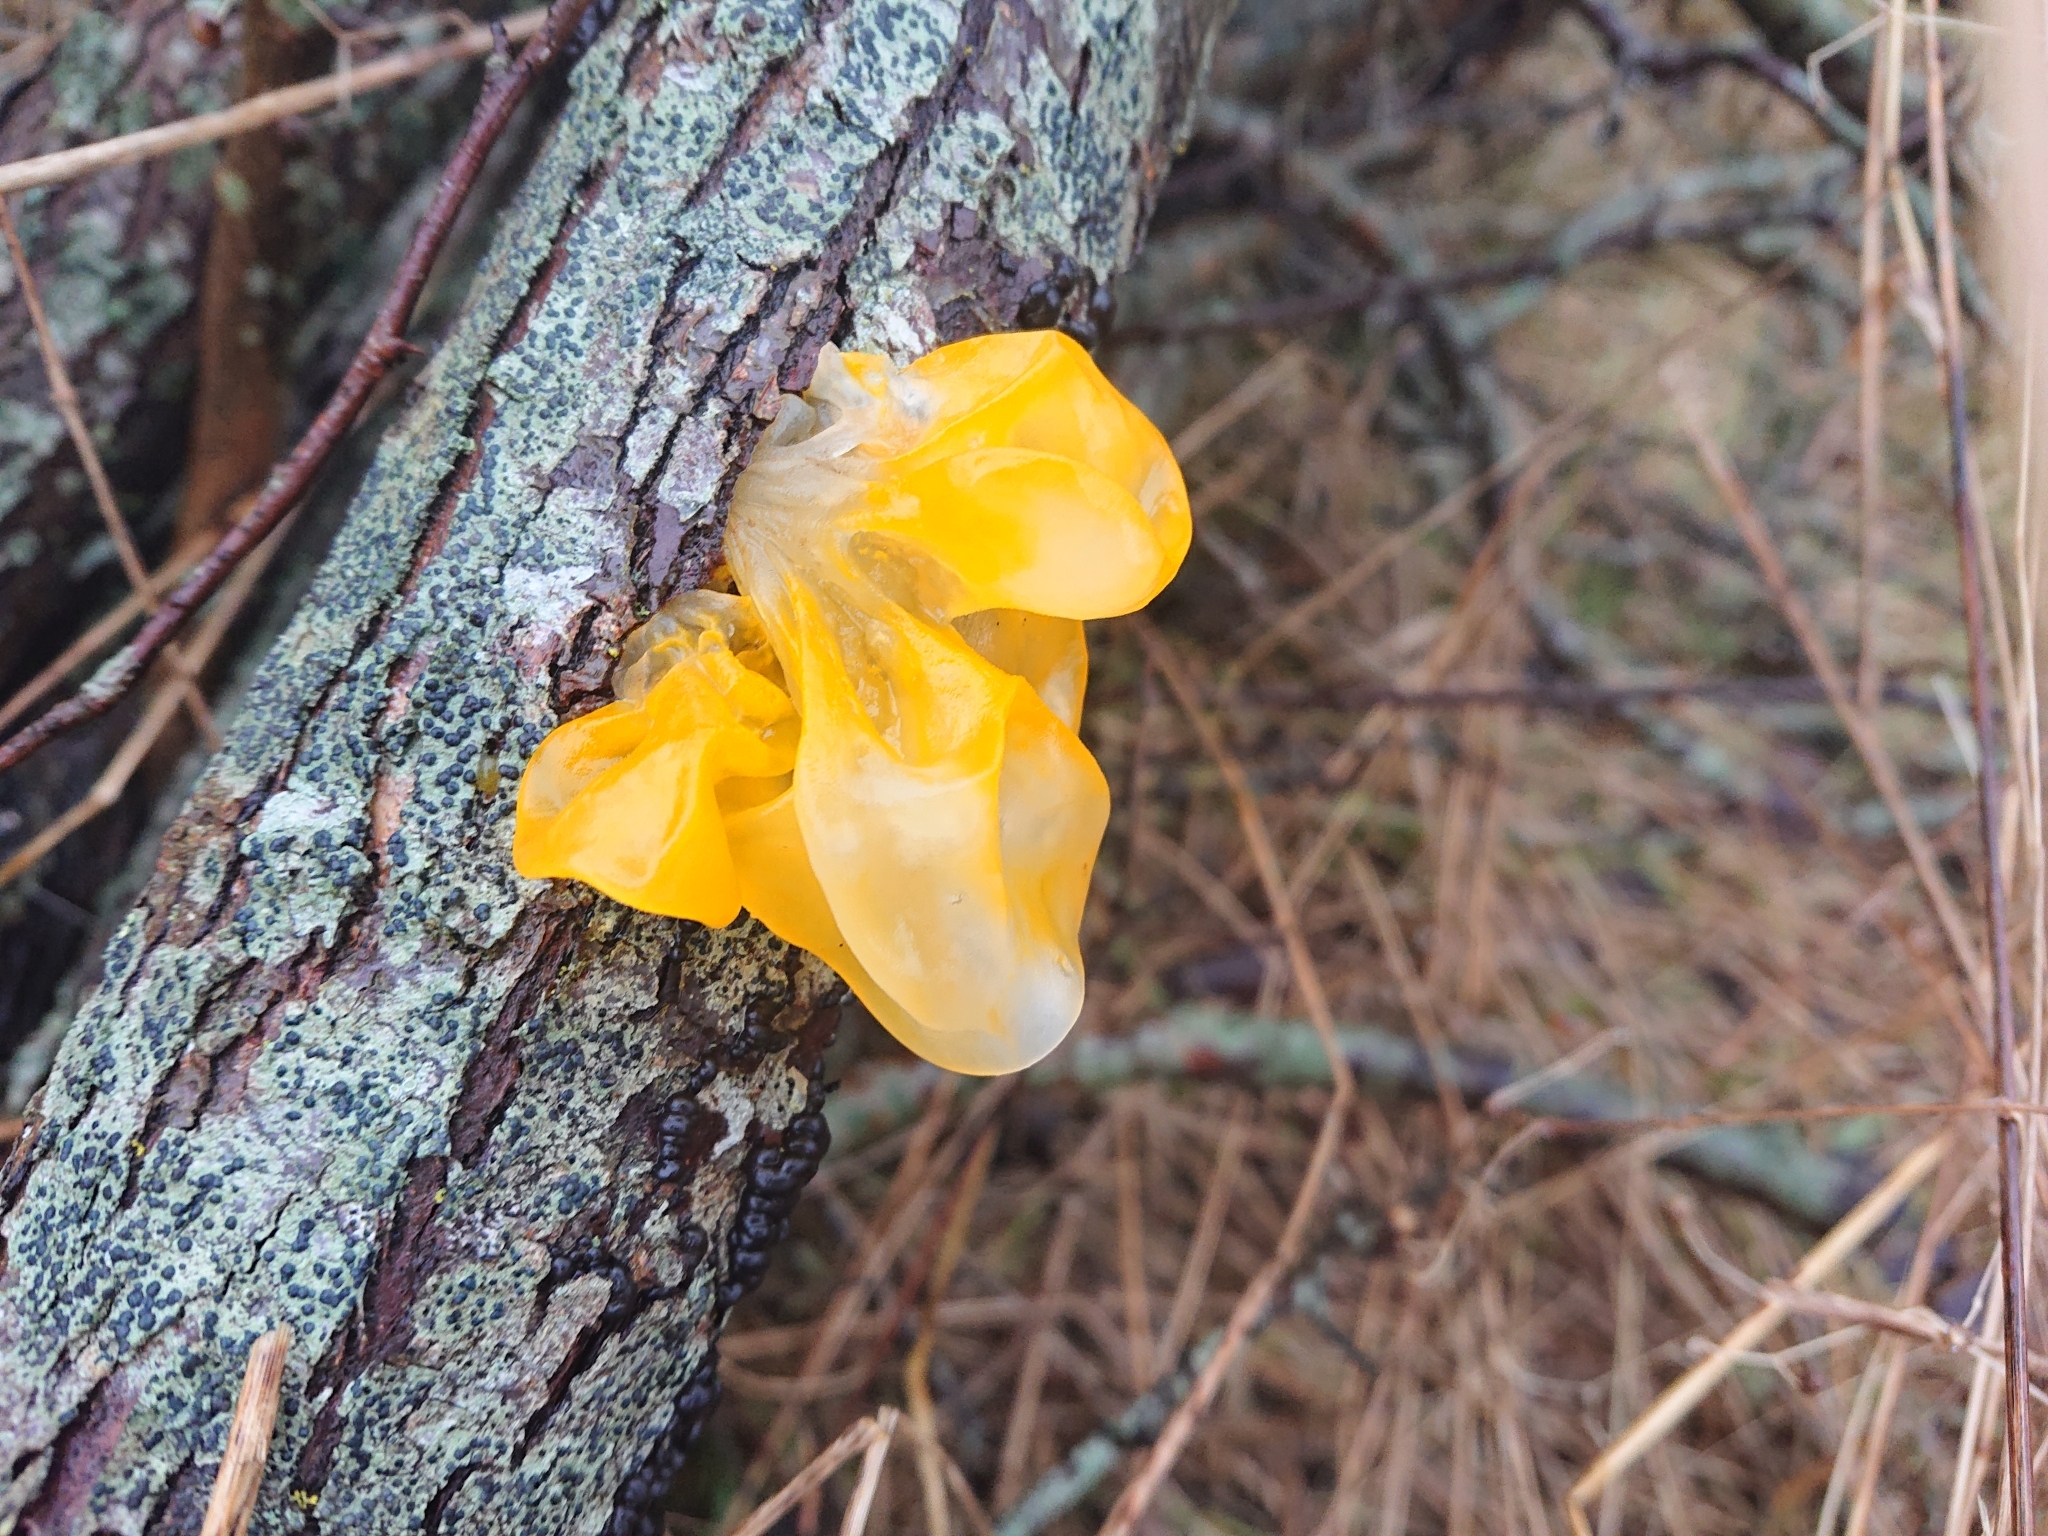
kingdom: Fungi
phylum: Basidiomycota
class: Tremellomycetes
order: Tremellales
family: Tremellaceae
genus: Tremella
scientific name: Tremella mesenterica
